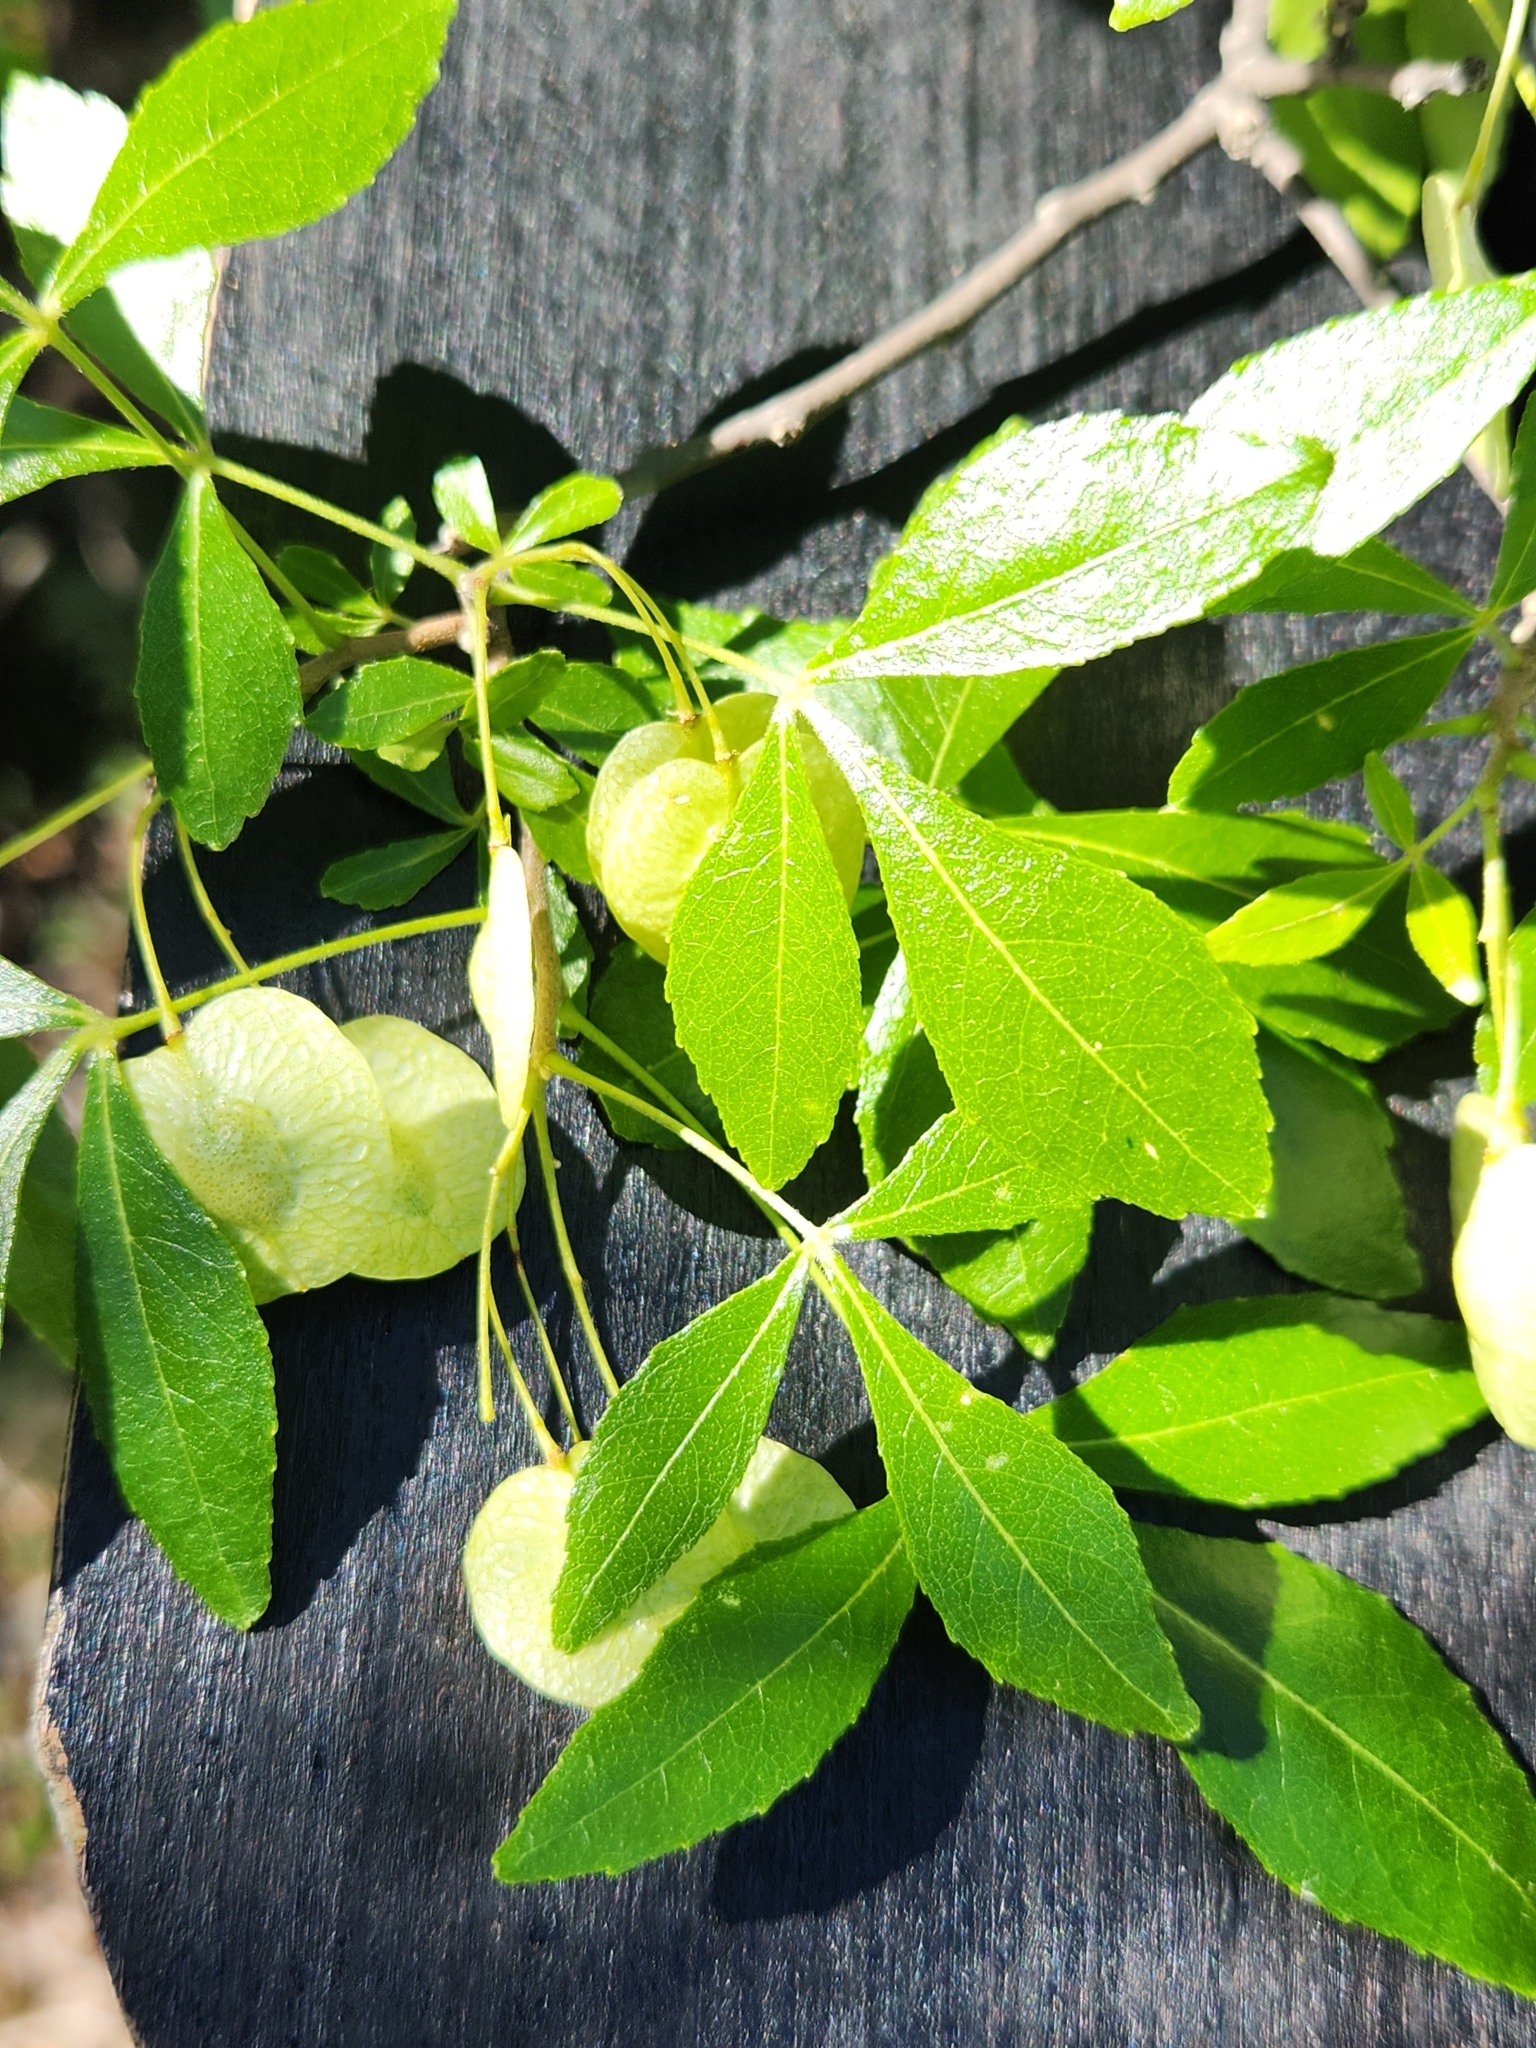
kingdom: Plantae
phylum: Tracheophyta
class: Magnoliopsida
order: Sapindales
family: Rutaceae
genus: Ptelea
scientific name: Ptelea trifoliata
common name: Common hop-tree
